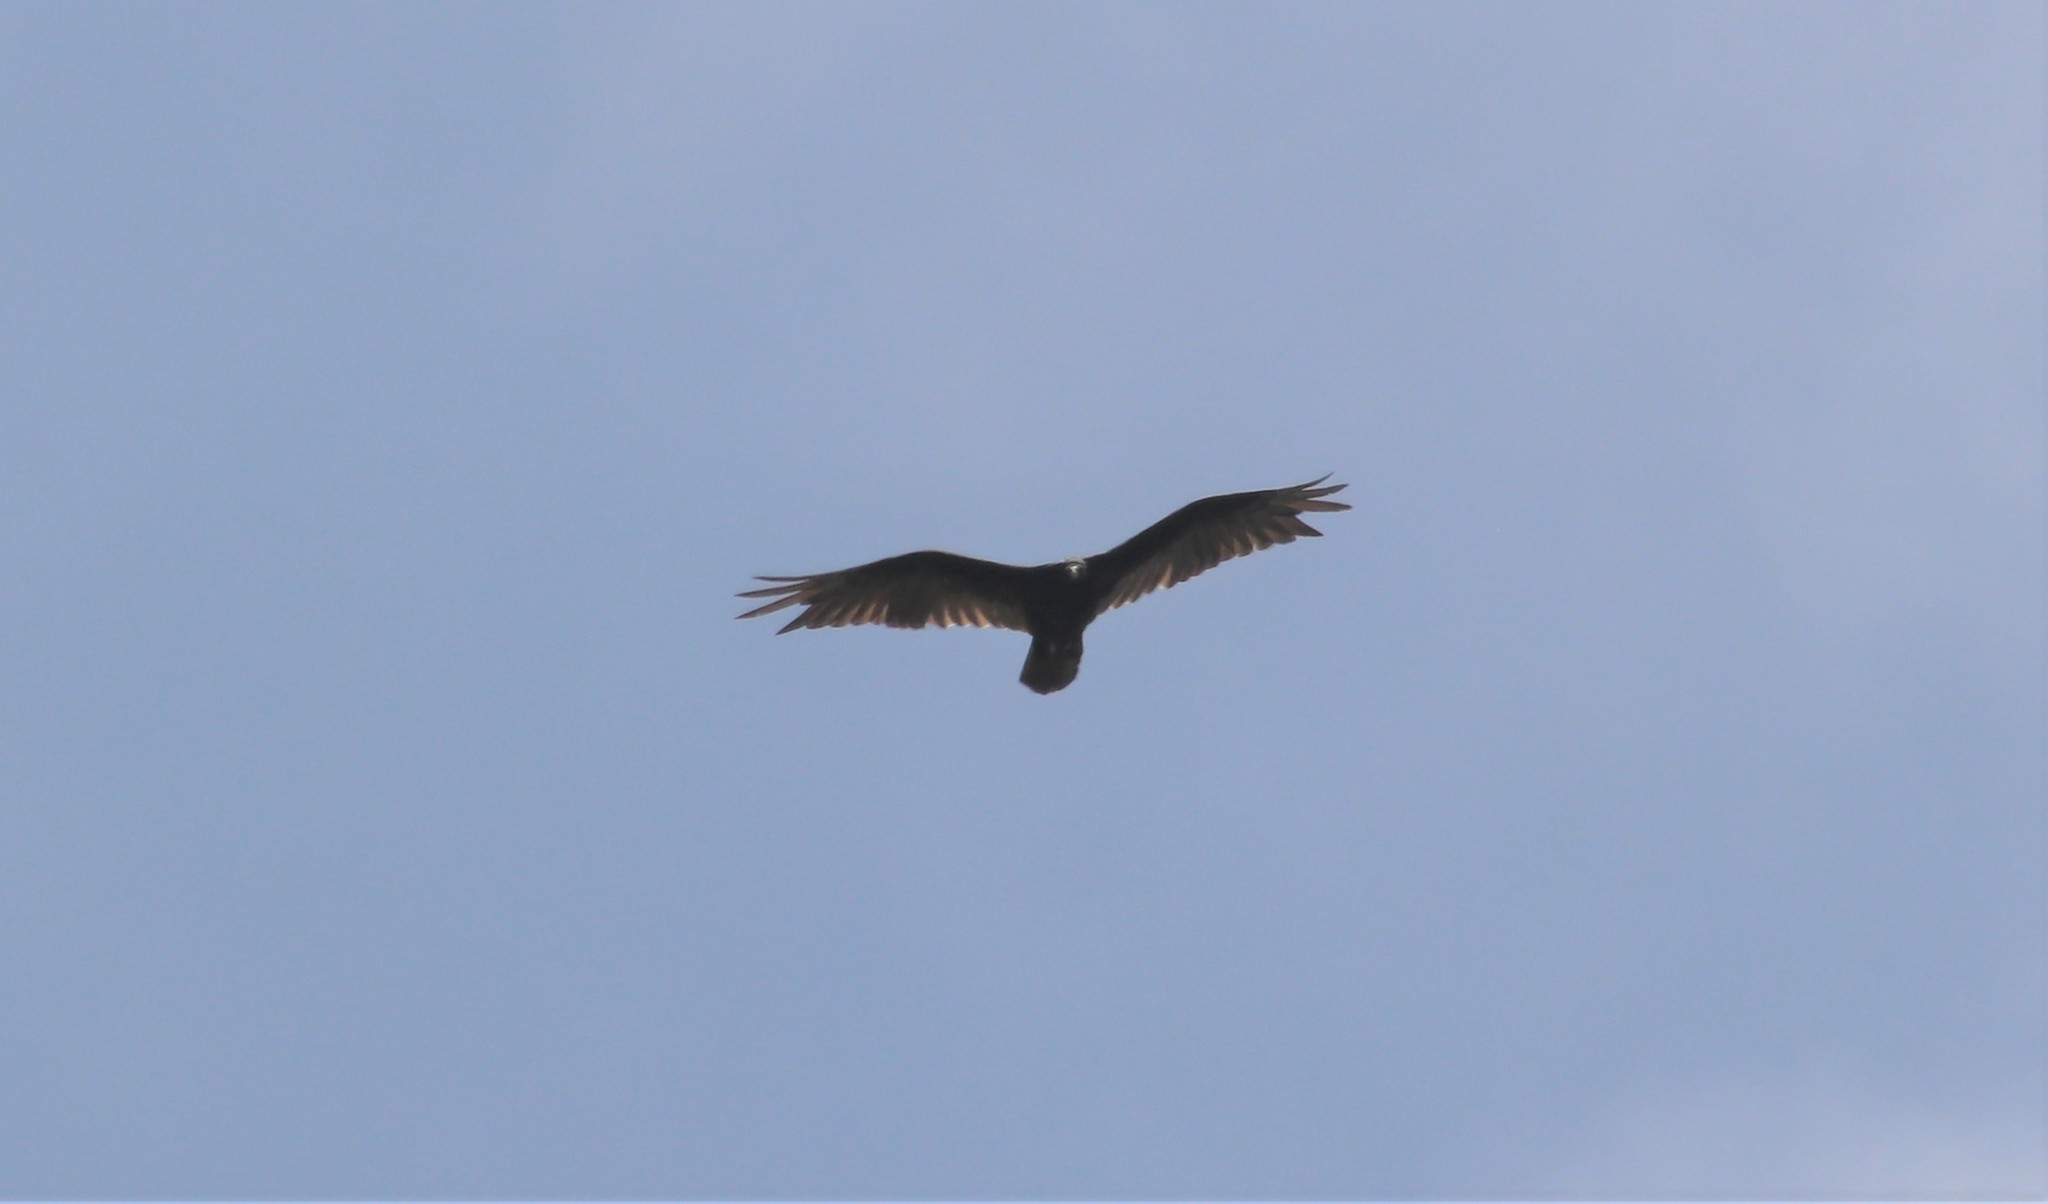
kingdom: Animalia
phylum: Chordata
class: Aves
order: Accipitriformes
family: Cathartidae
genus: Cathartes
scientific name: Cathartes aura
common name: Turkey vulture
